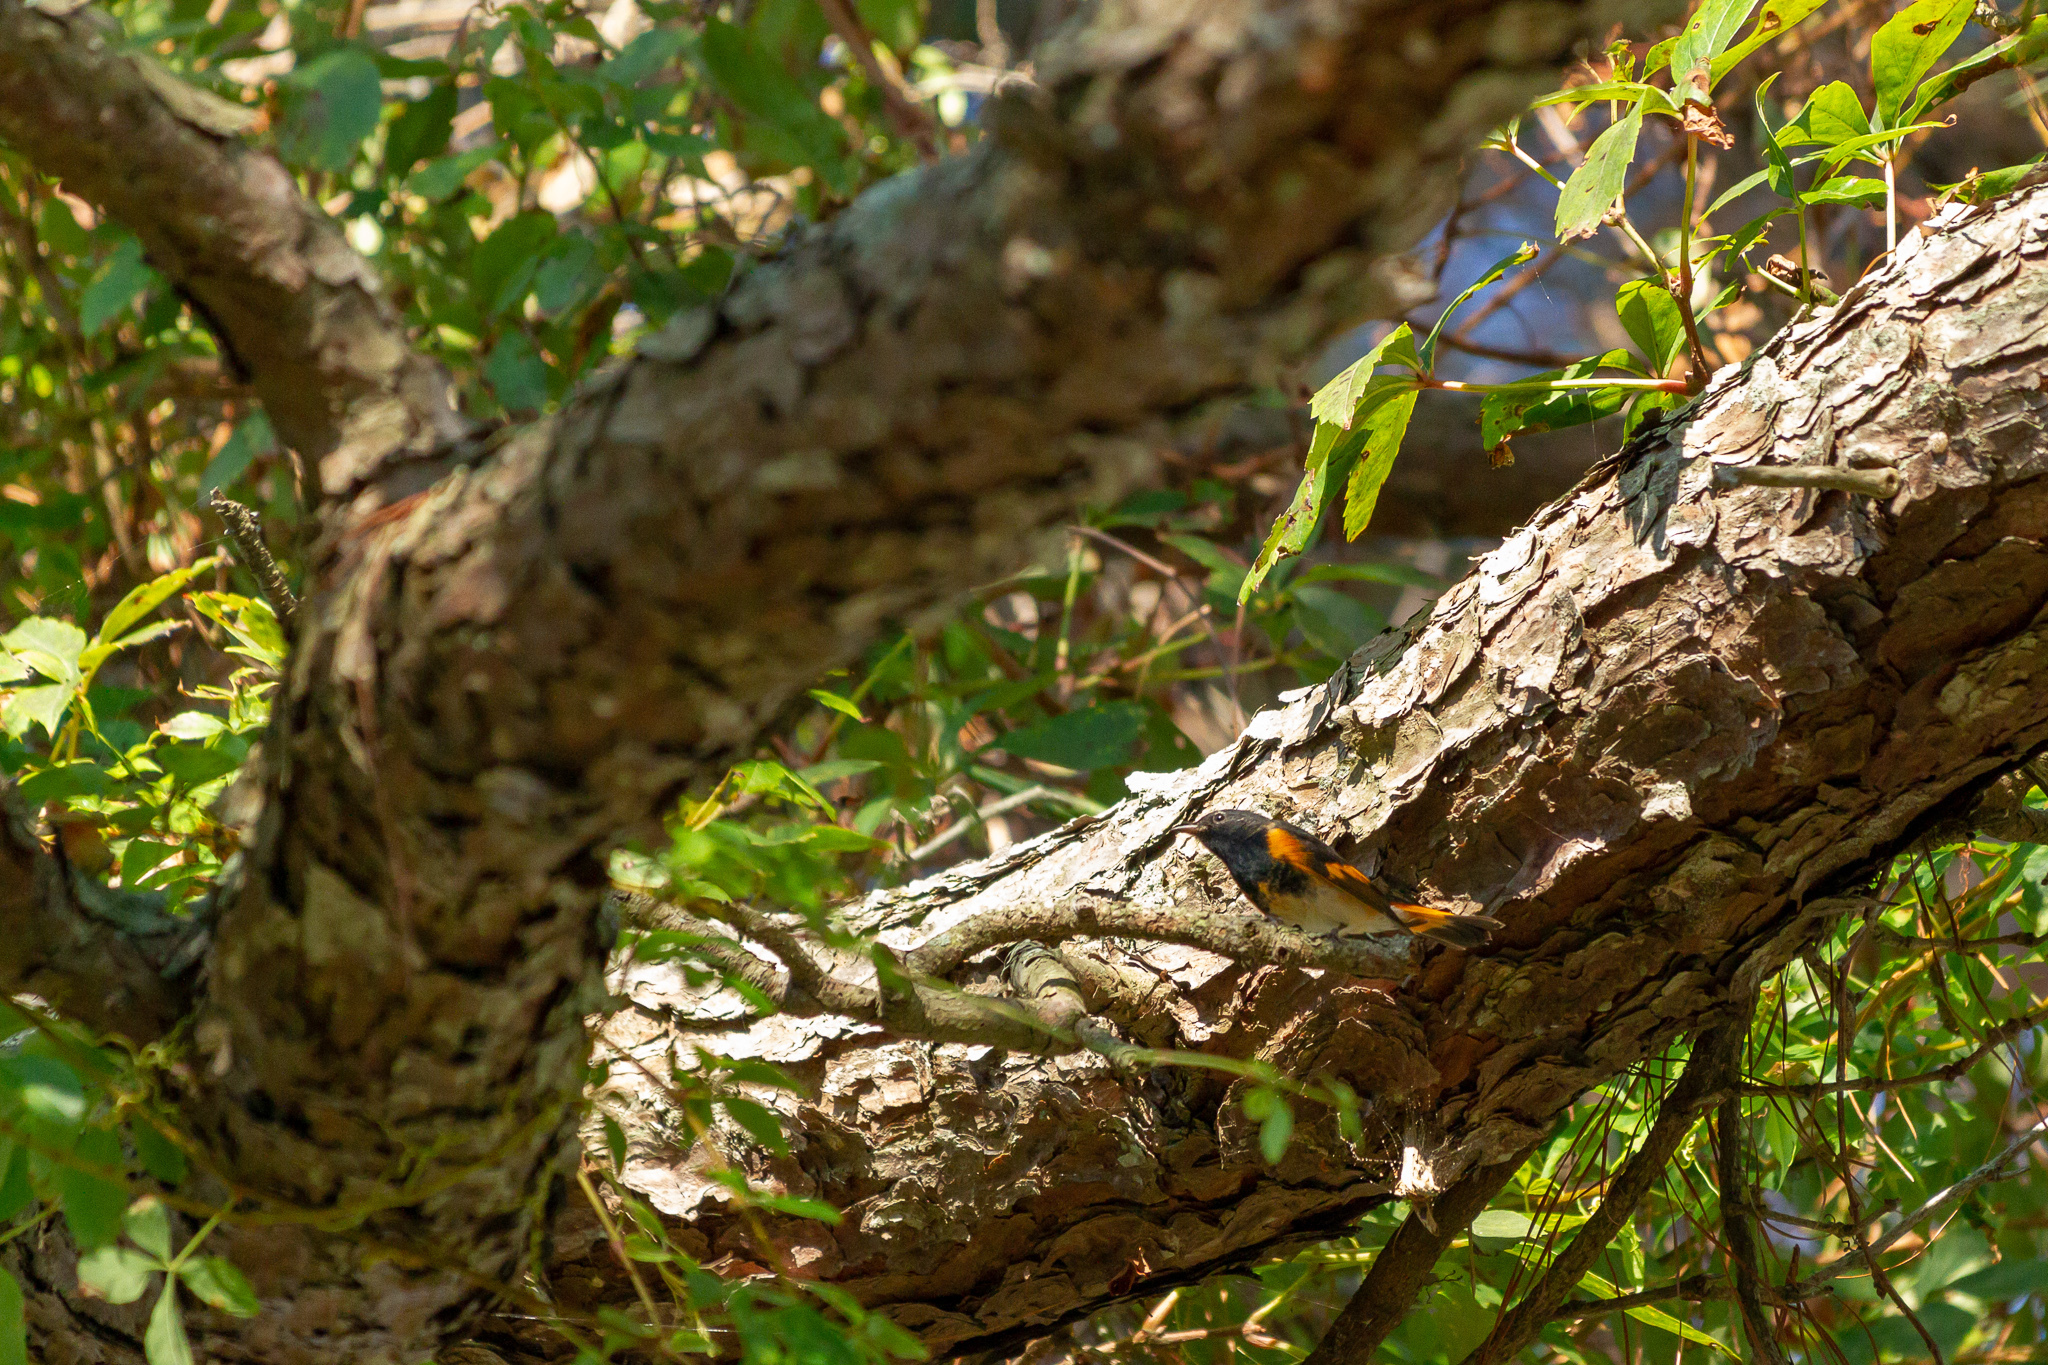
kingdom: Animalia
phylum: Chordata
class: Aves
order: Passeriformes
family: Parulidae
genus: Setophaga
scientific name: Setophaga ruticilla
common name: American redstart
